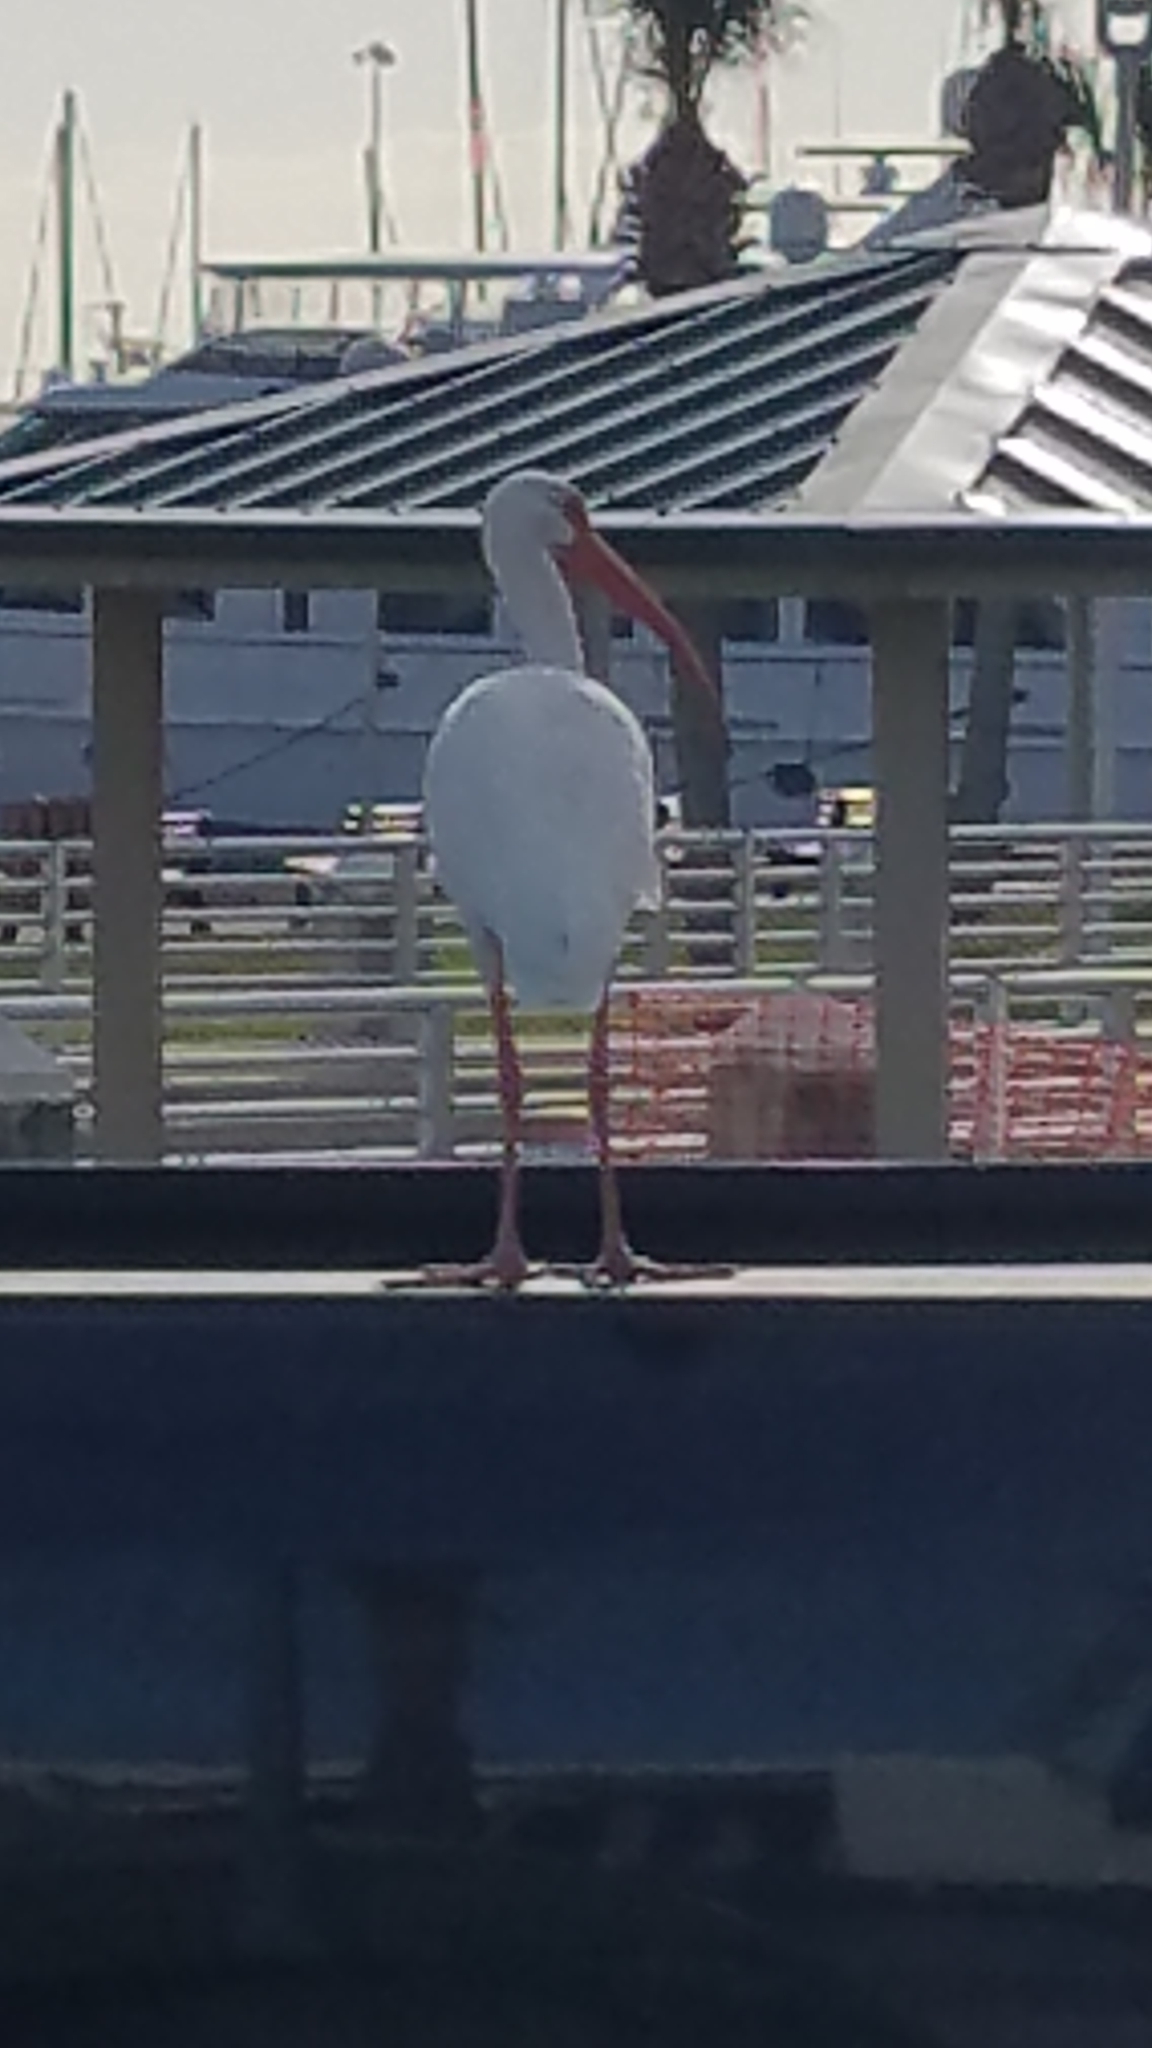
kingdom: Animalia
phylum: Chordata
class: Aves
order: Pelecaniformes
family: Threskiornithidae
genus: Eudocimus
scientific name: Eudocimus albus
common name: White ibis
